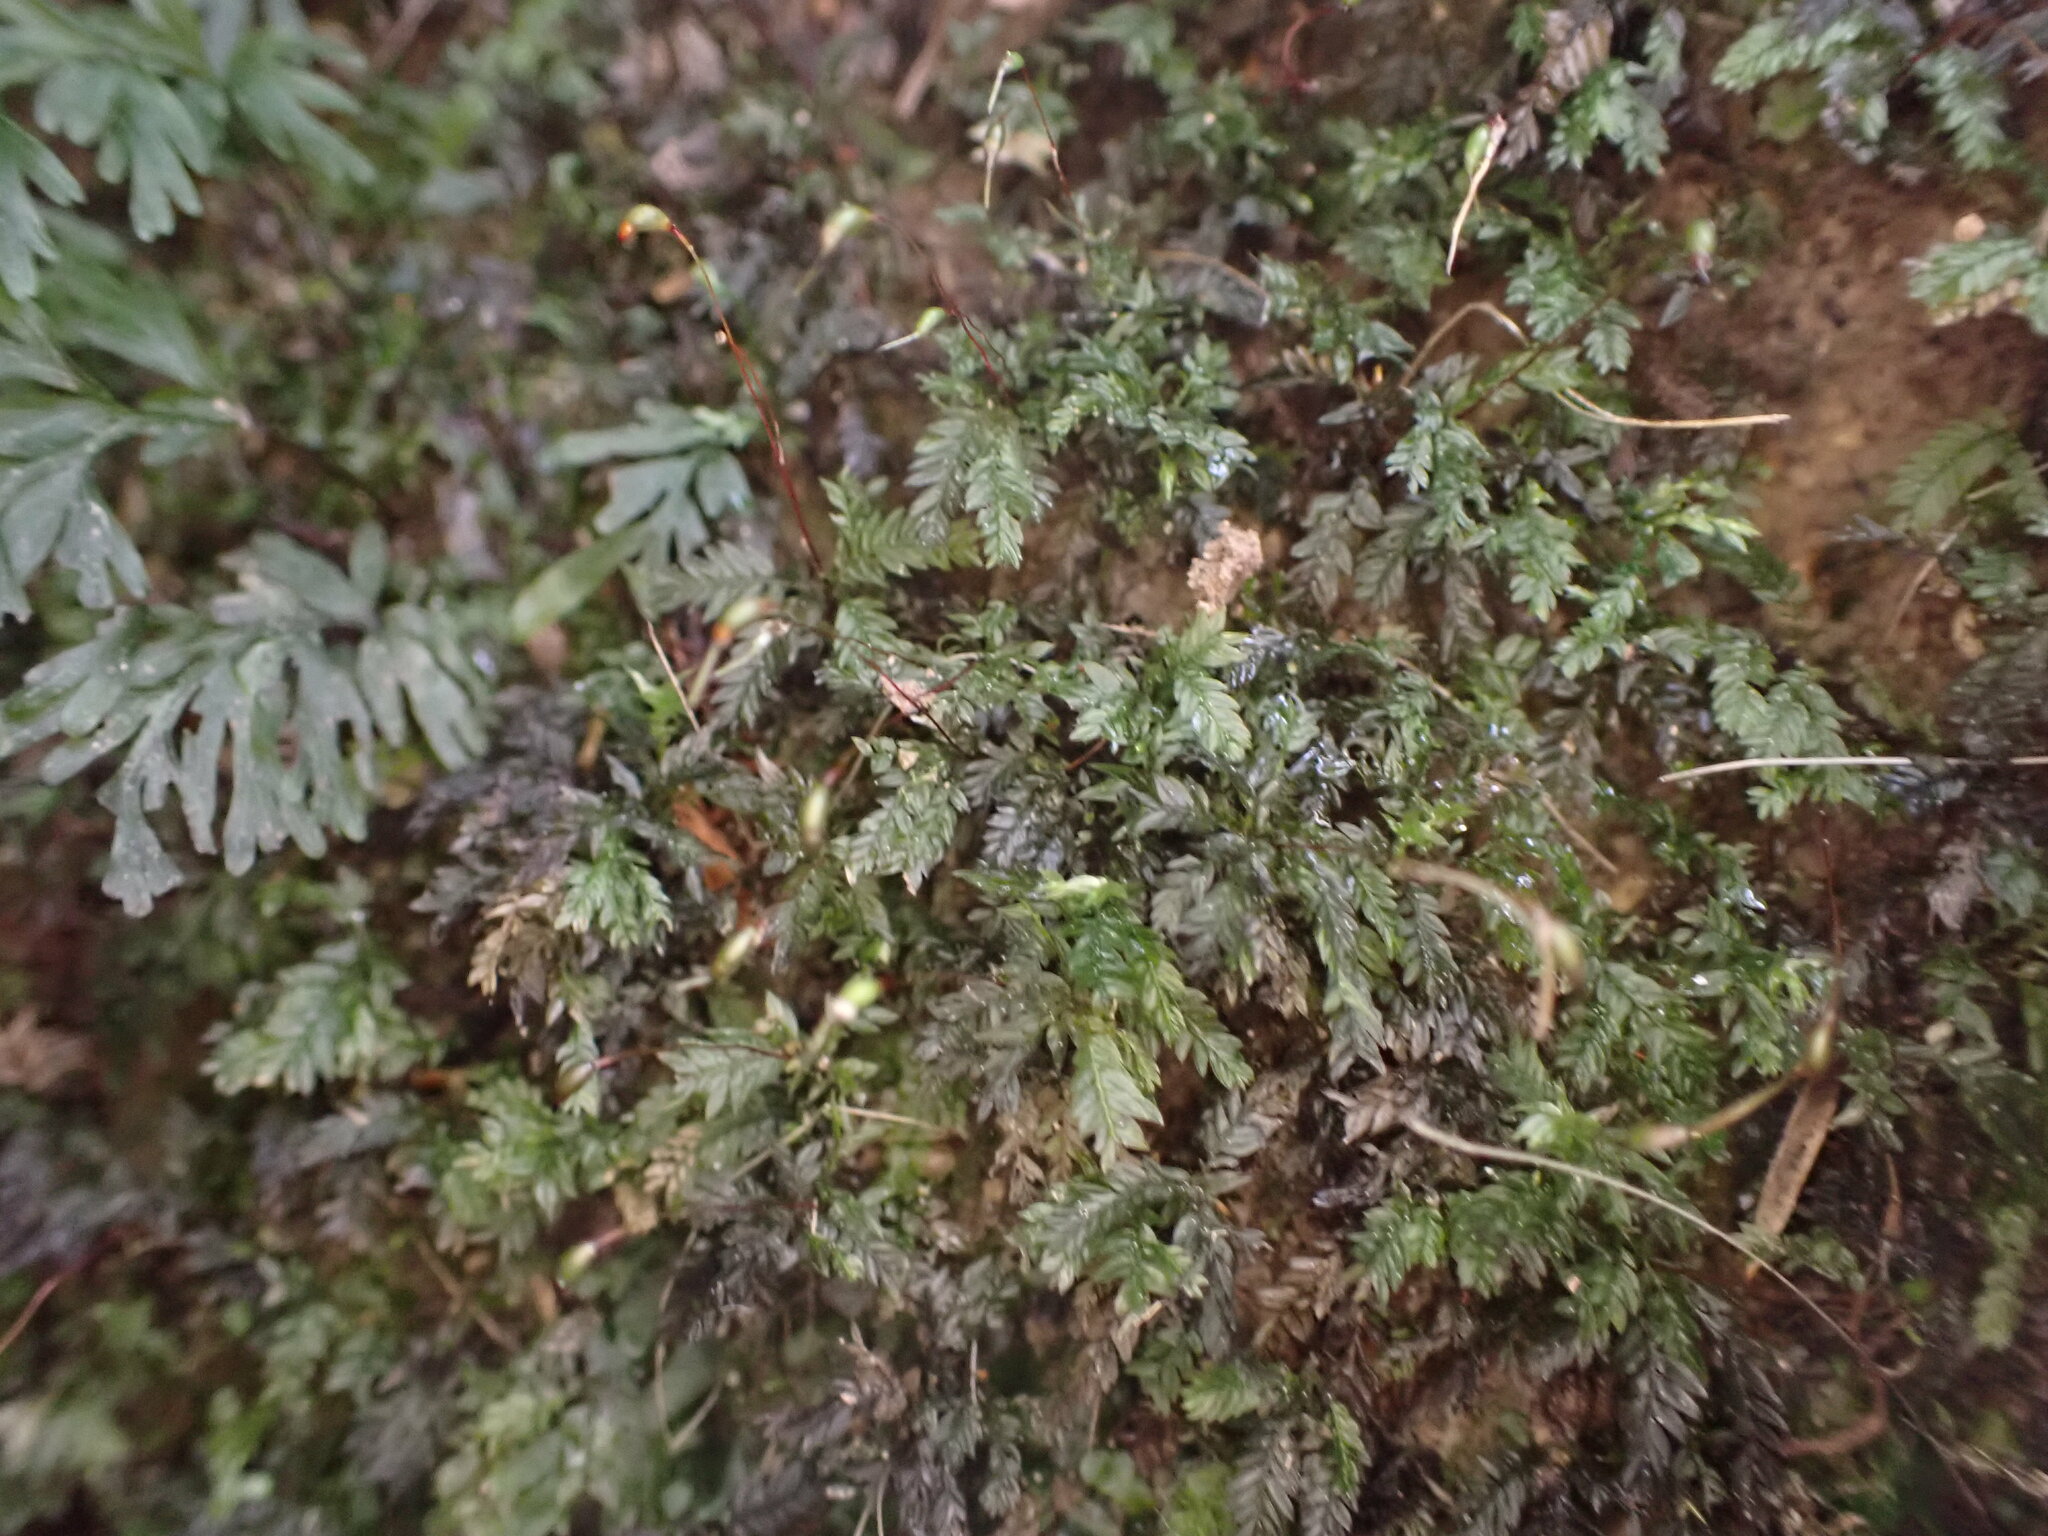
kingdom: Plantae
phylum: Bryophyta
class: Bryopsida
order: Aulacomniales
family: Aulacomniaceae
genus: Hymenodontopsis
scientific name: Hymenodontopsis bifaria
